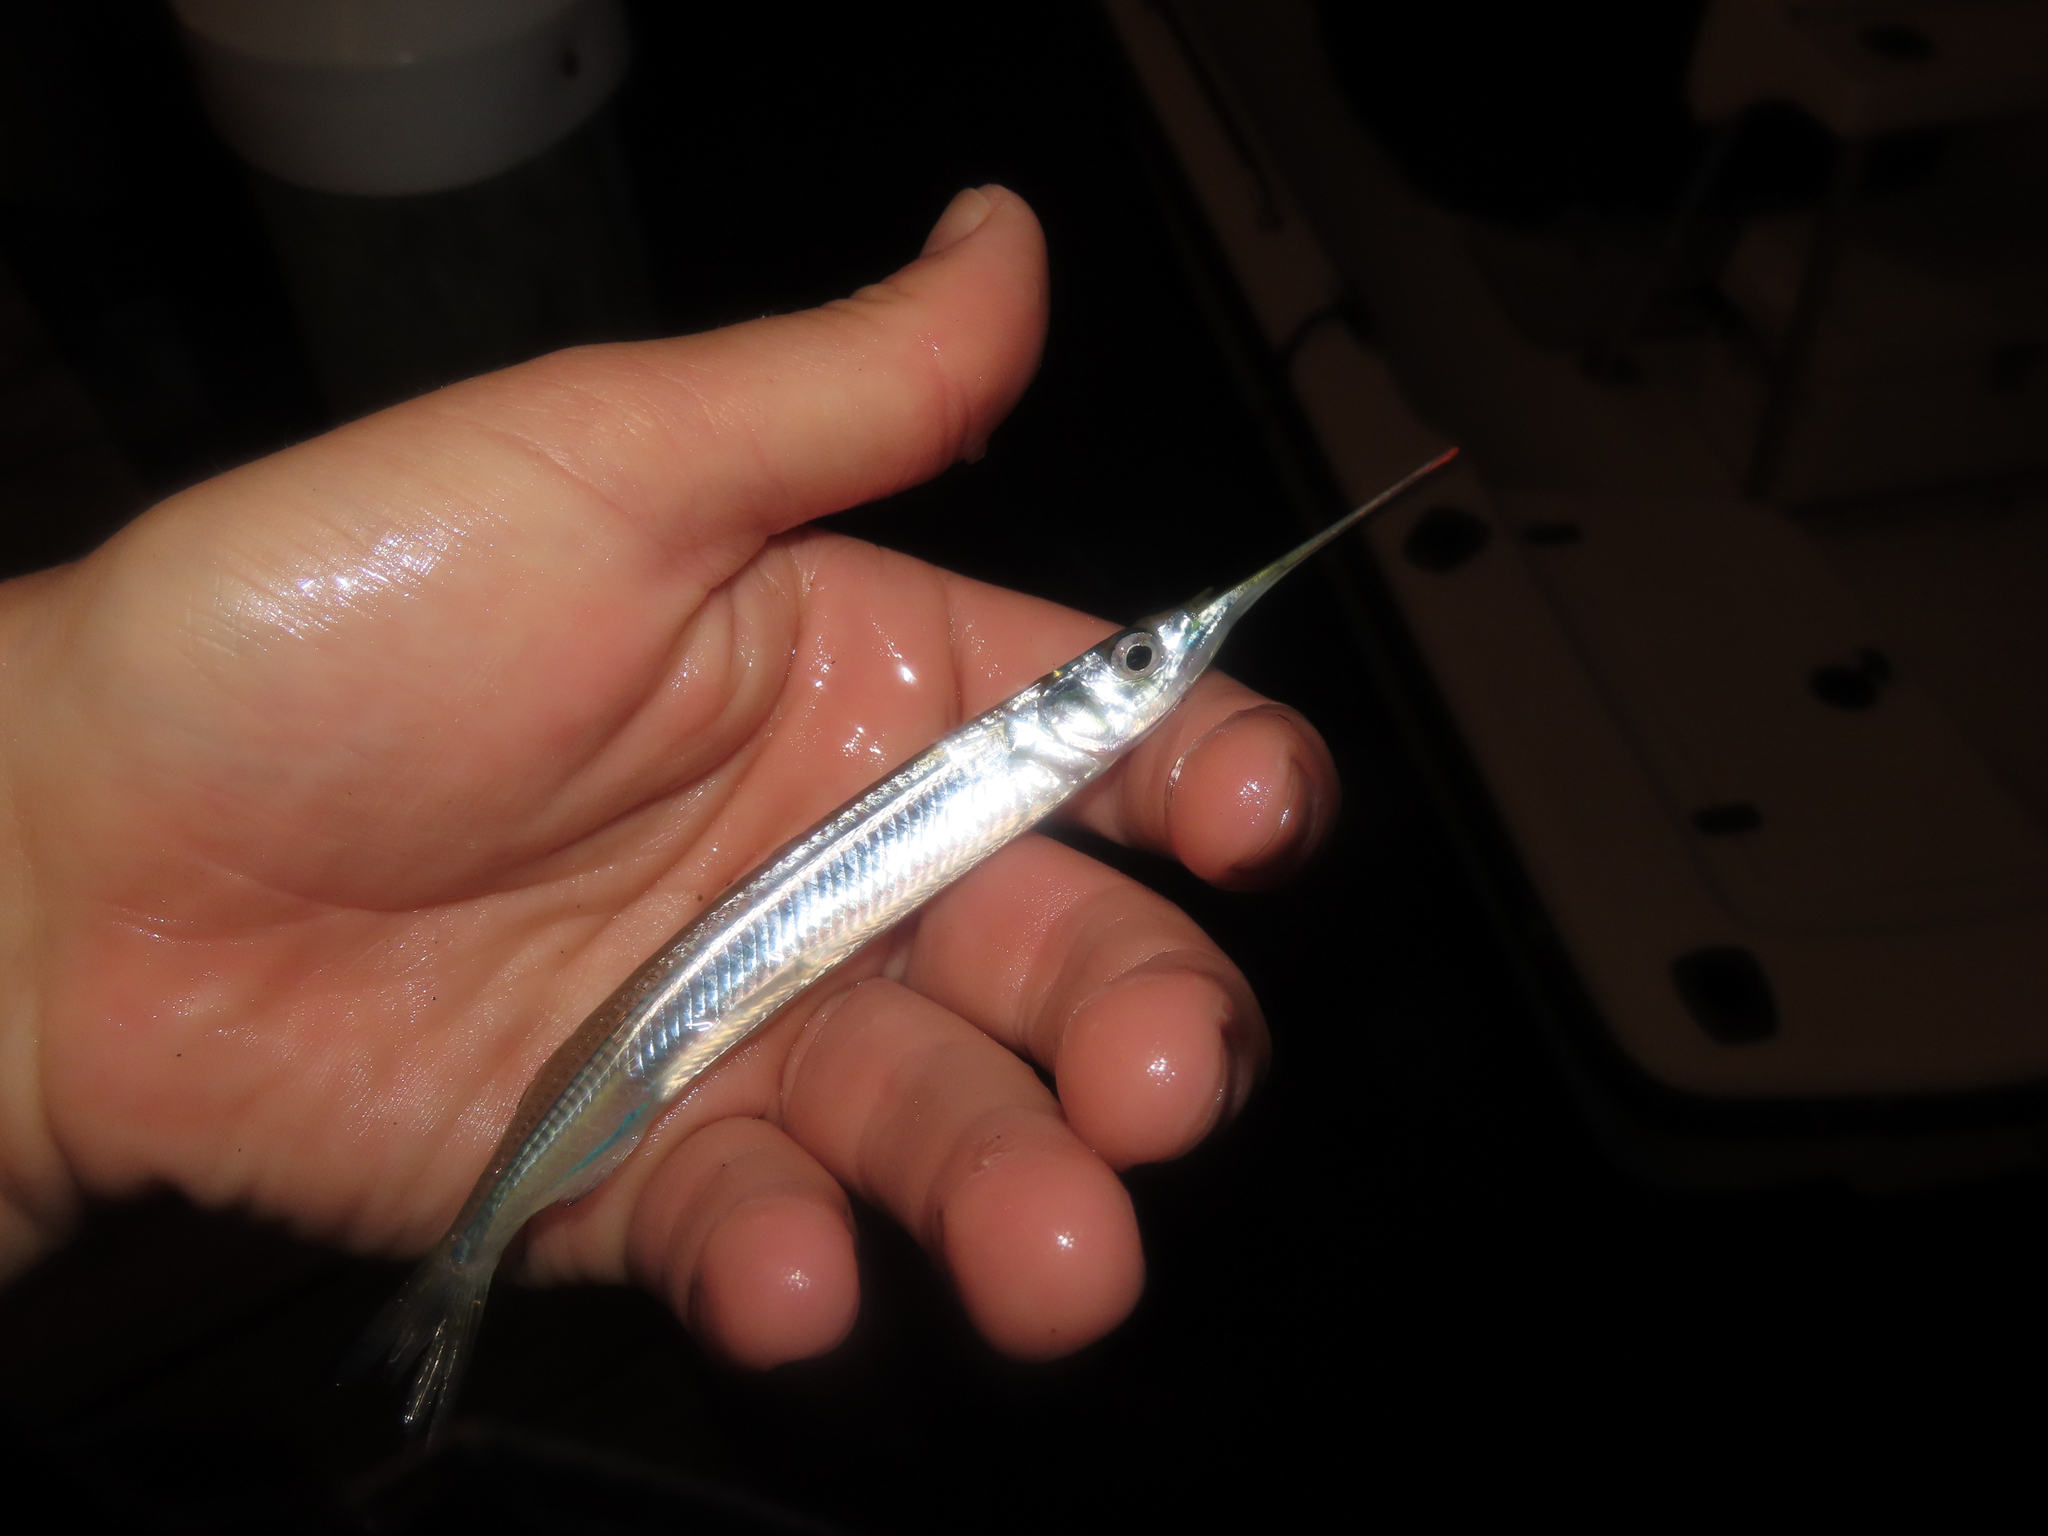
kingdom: Animalia
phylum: Chordata
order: Beloniformes
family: Hemiramphidae
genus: Hyporhamphus
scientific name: Hyporhamphus meeki
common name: American halfbeak
